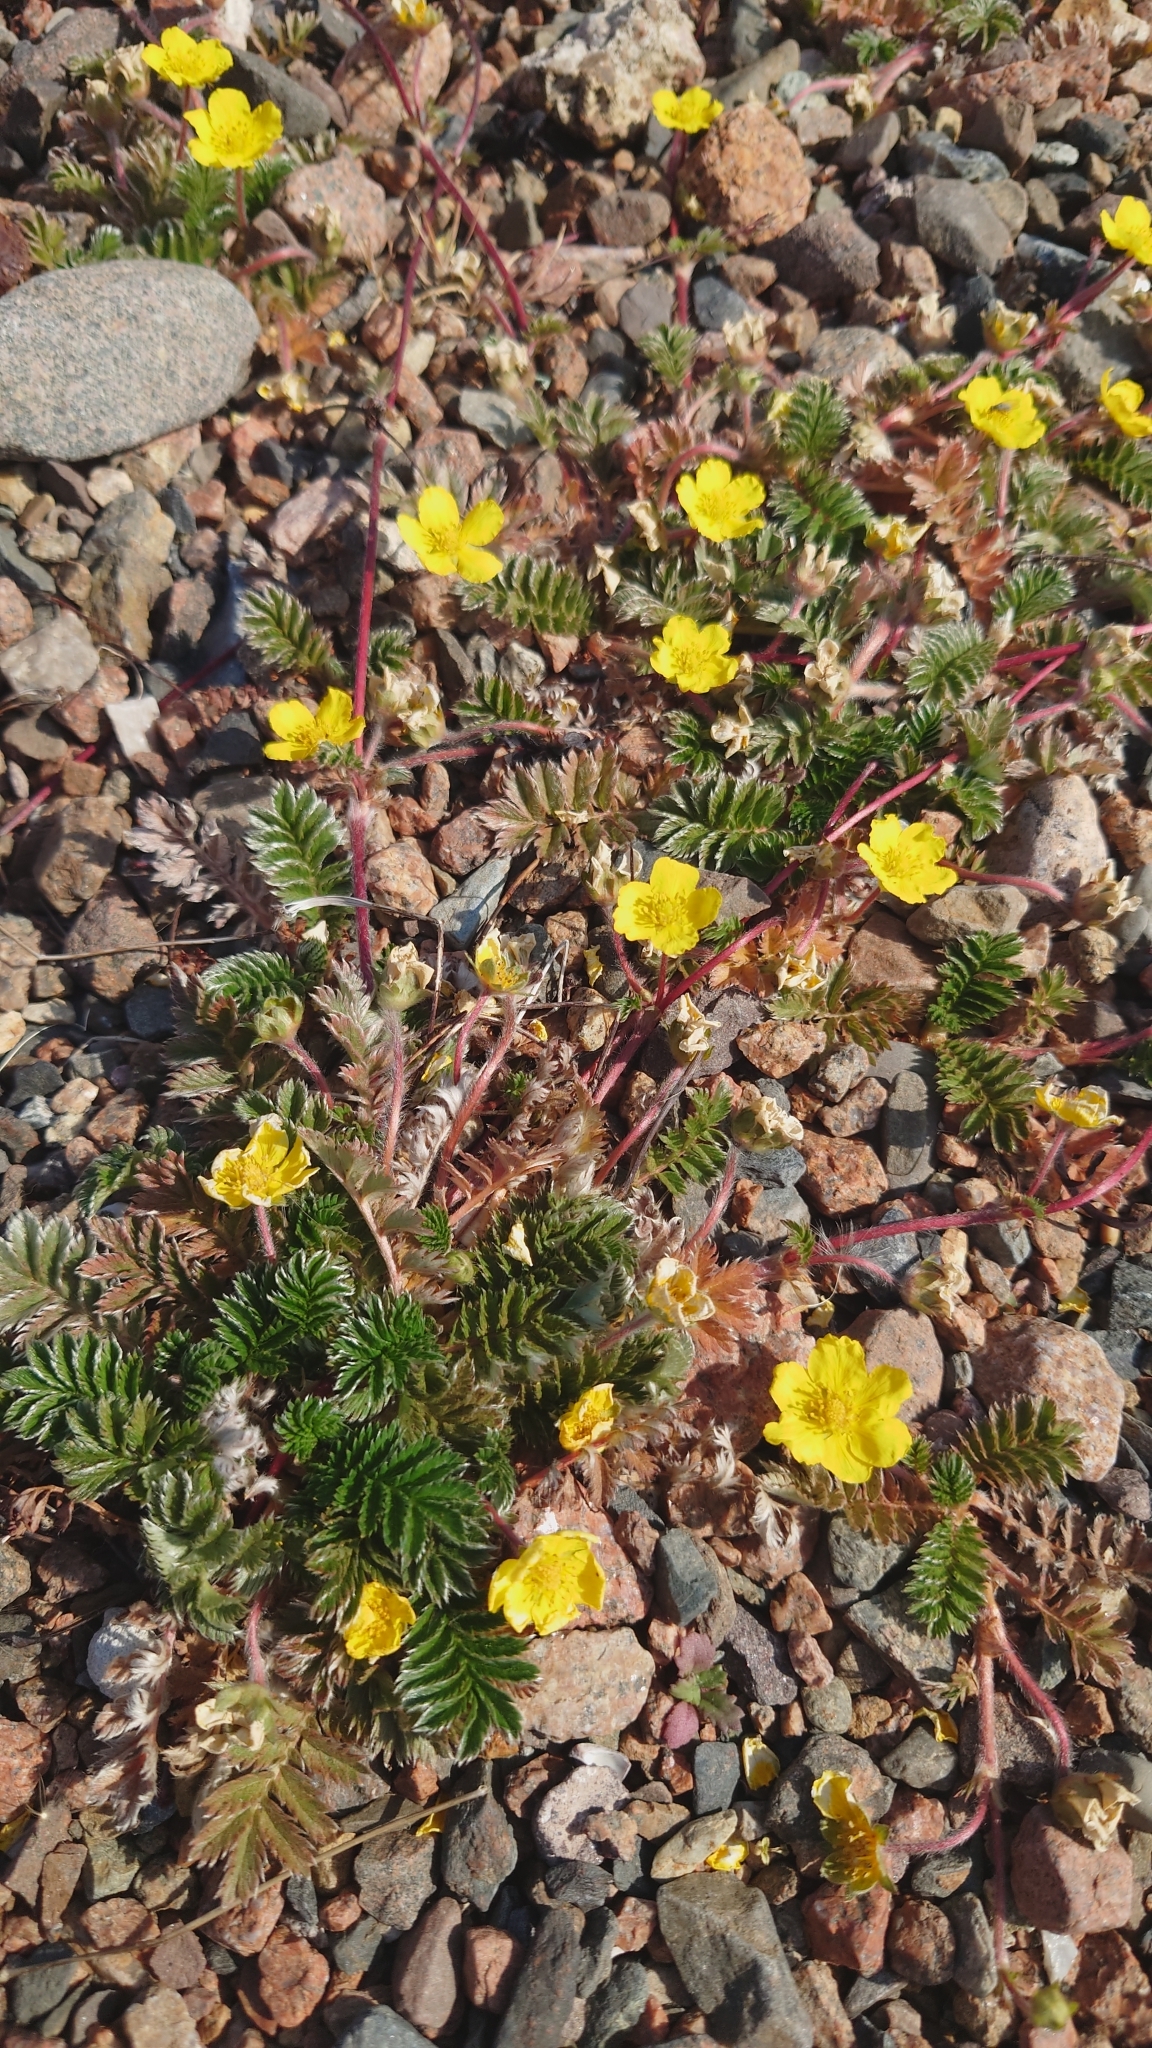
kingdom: Plantae
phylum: Tracheophyta
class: Magnoliopsida
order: Rosales
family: Rosaceae
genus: Argentina
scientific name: Argentina anserina
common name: Common silverweed
